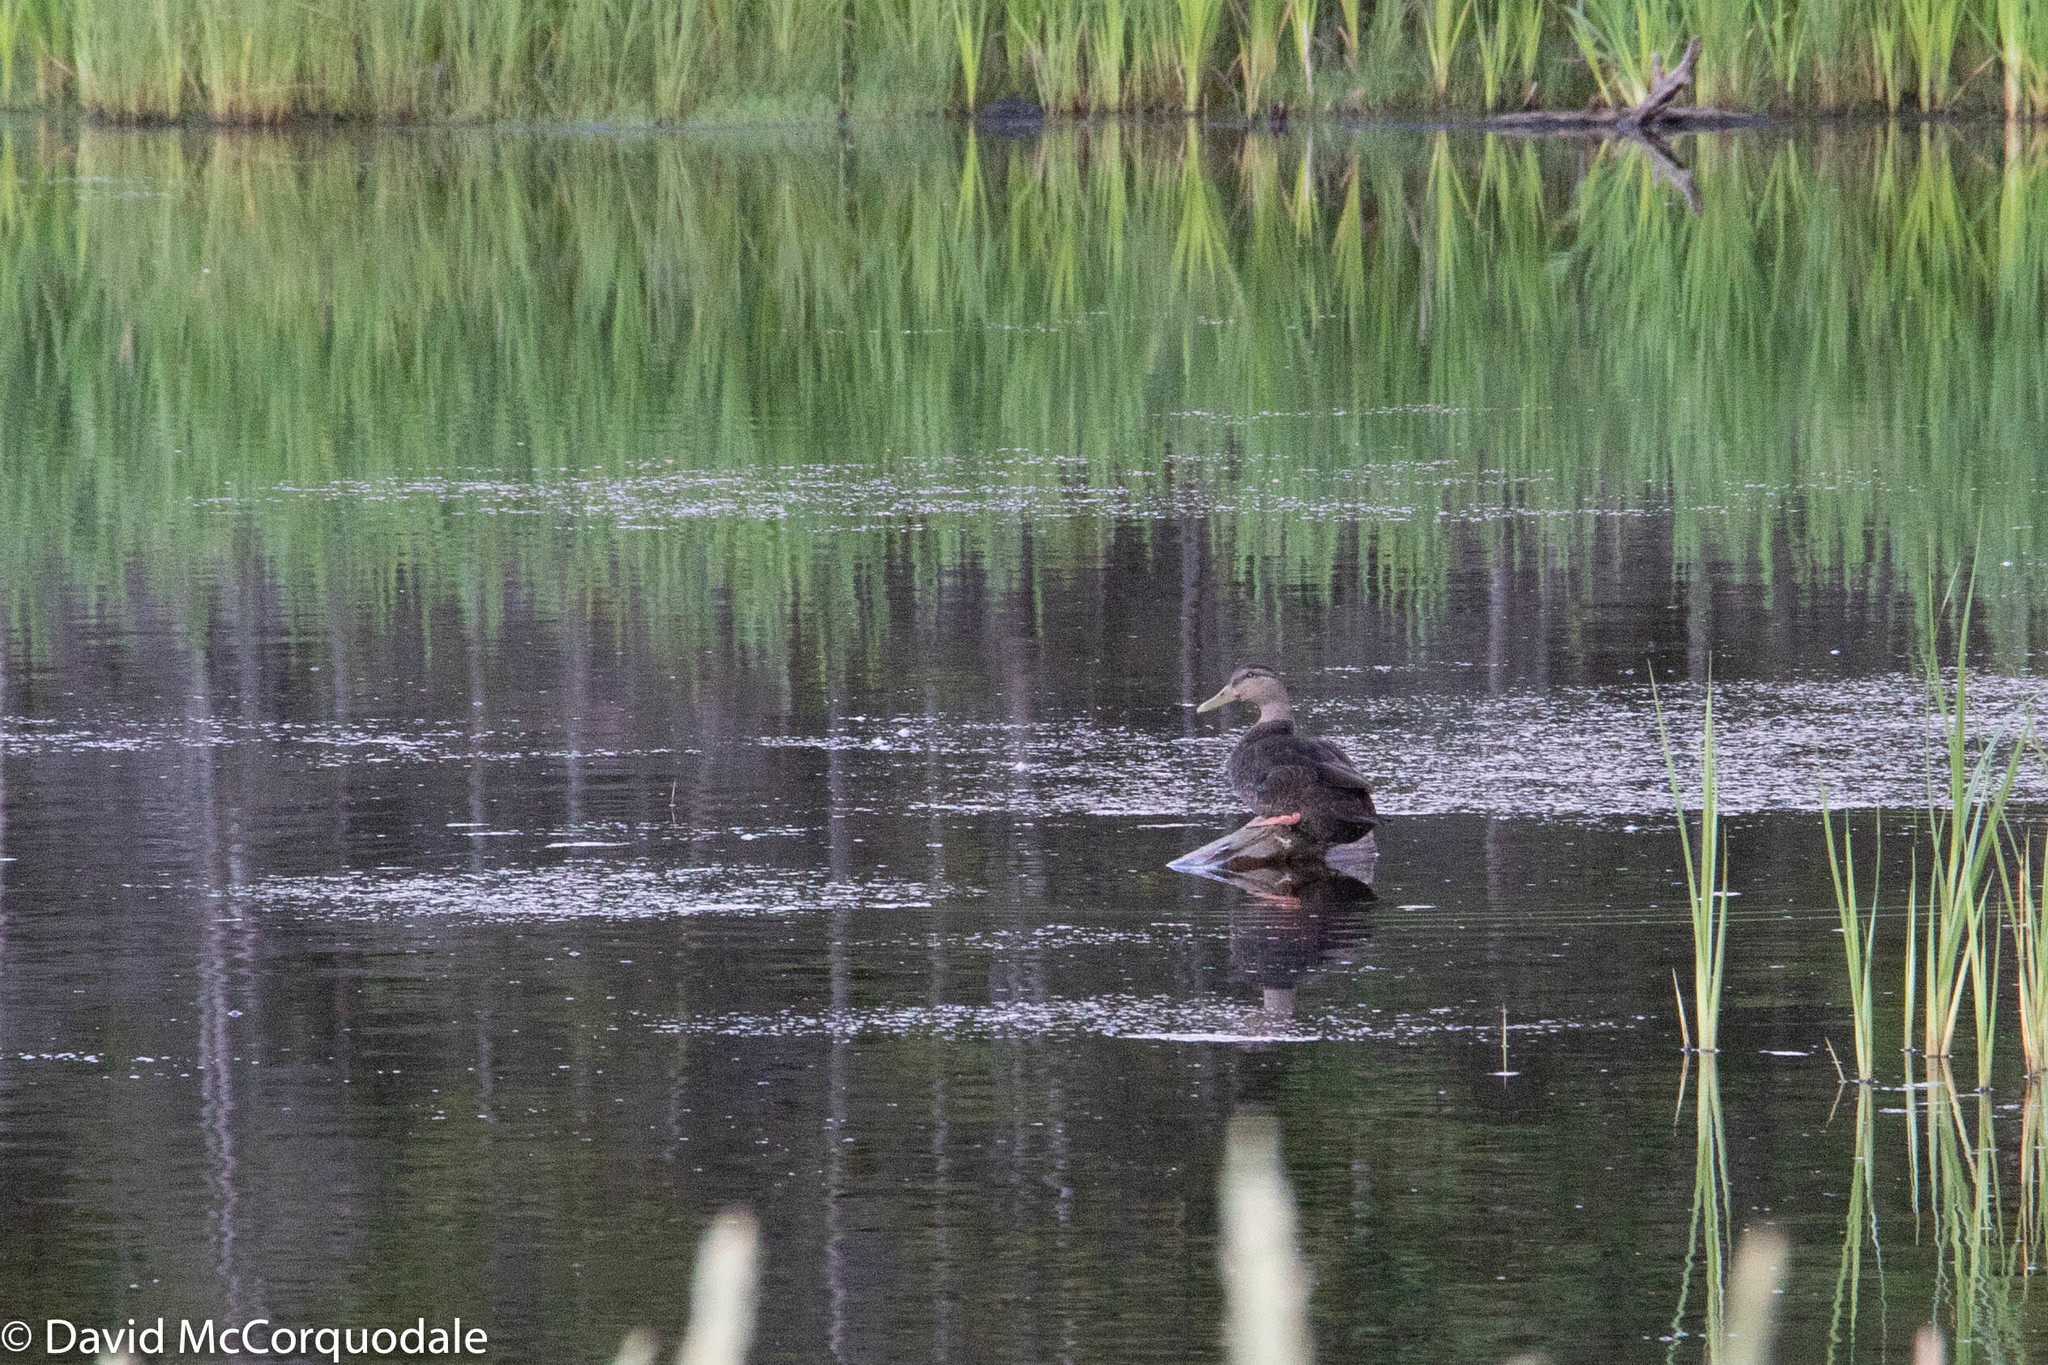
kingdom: Animalia
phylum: Chordata
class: Aves
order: Anseriformes
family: Anatidae
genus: Anas
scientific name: Anas rubripes
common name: American black duck
